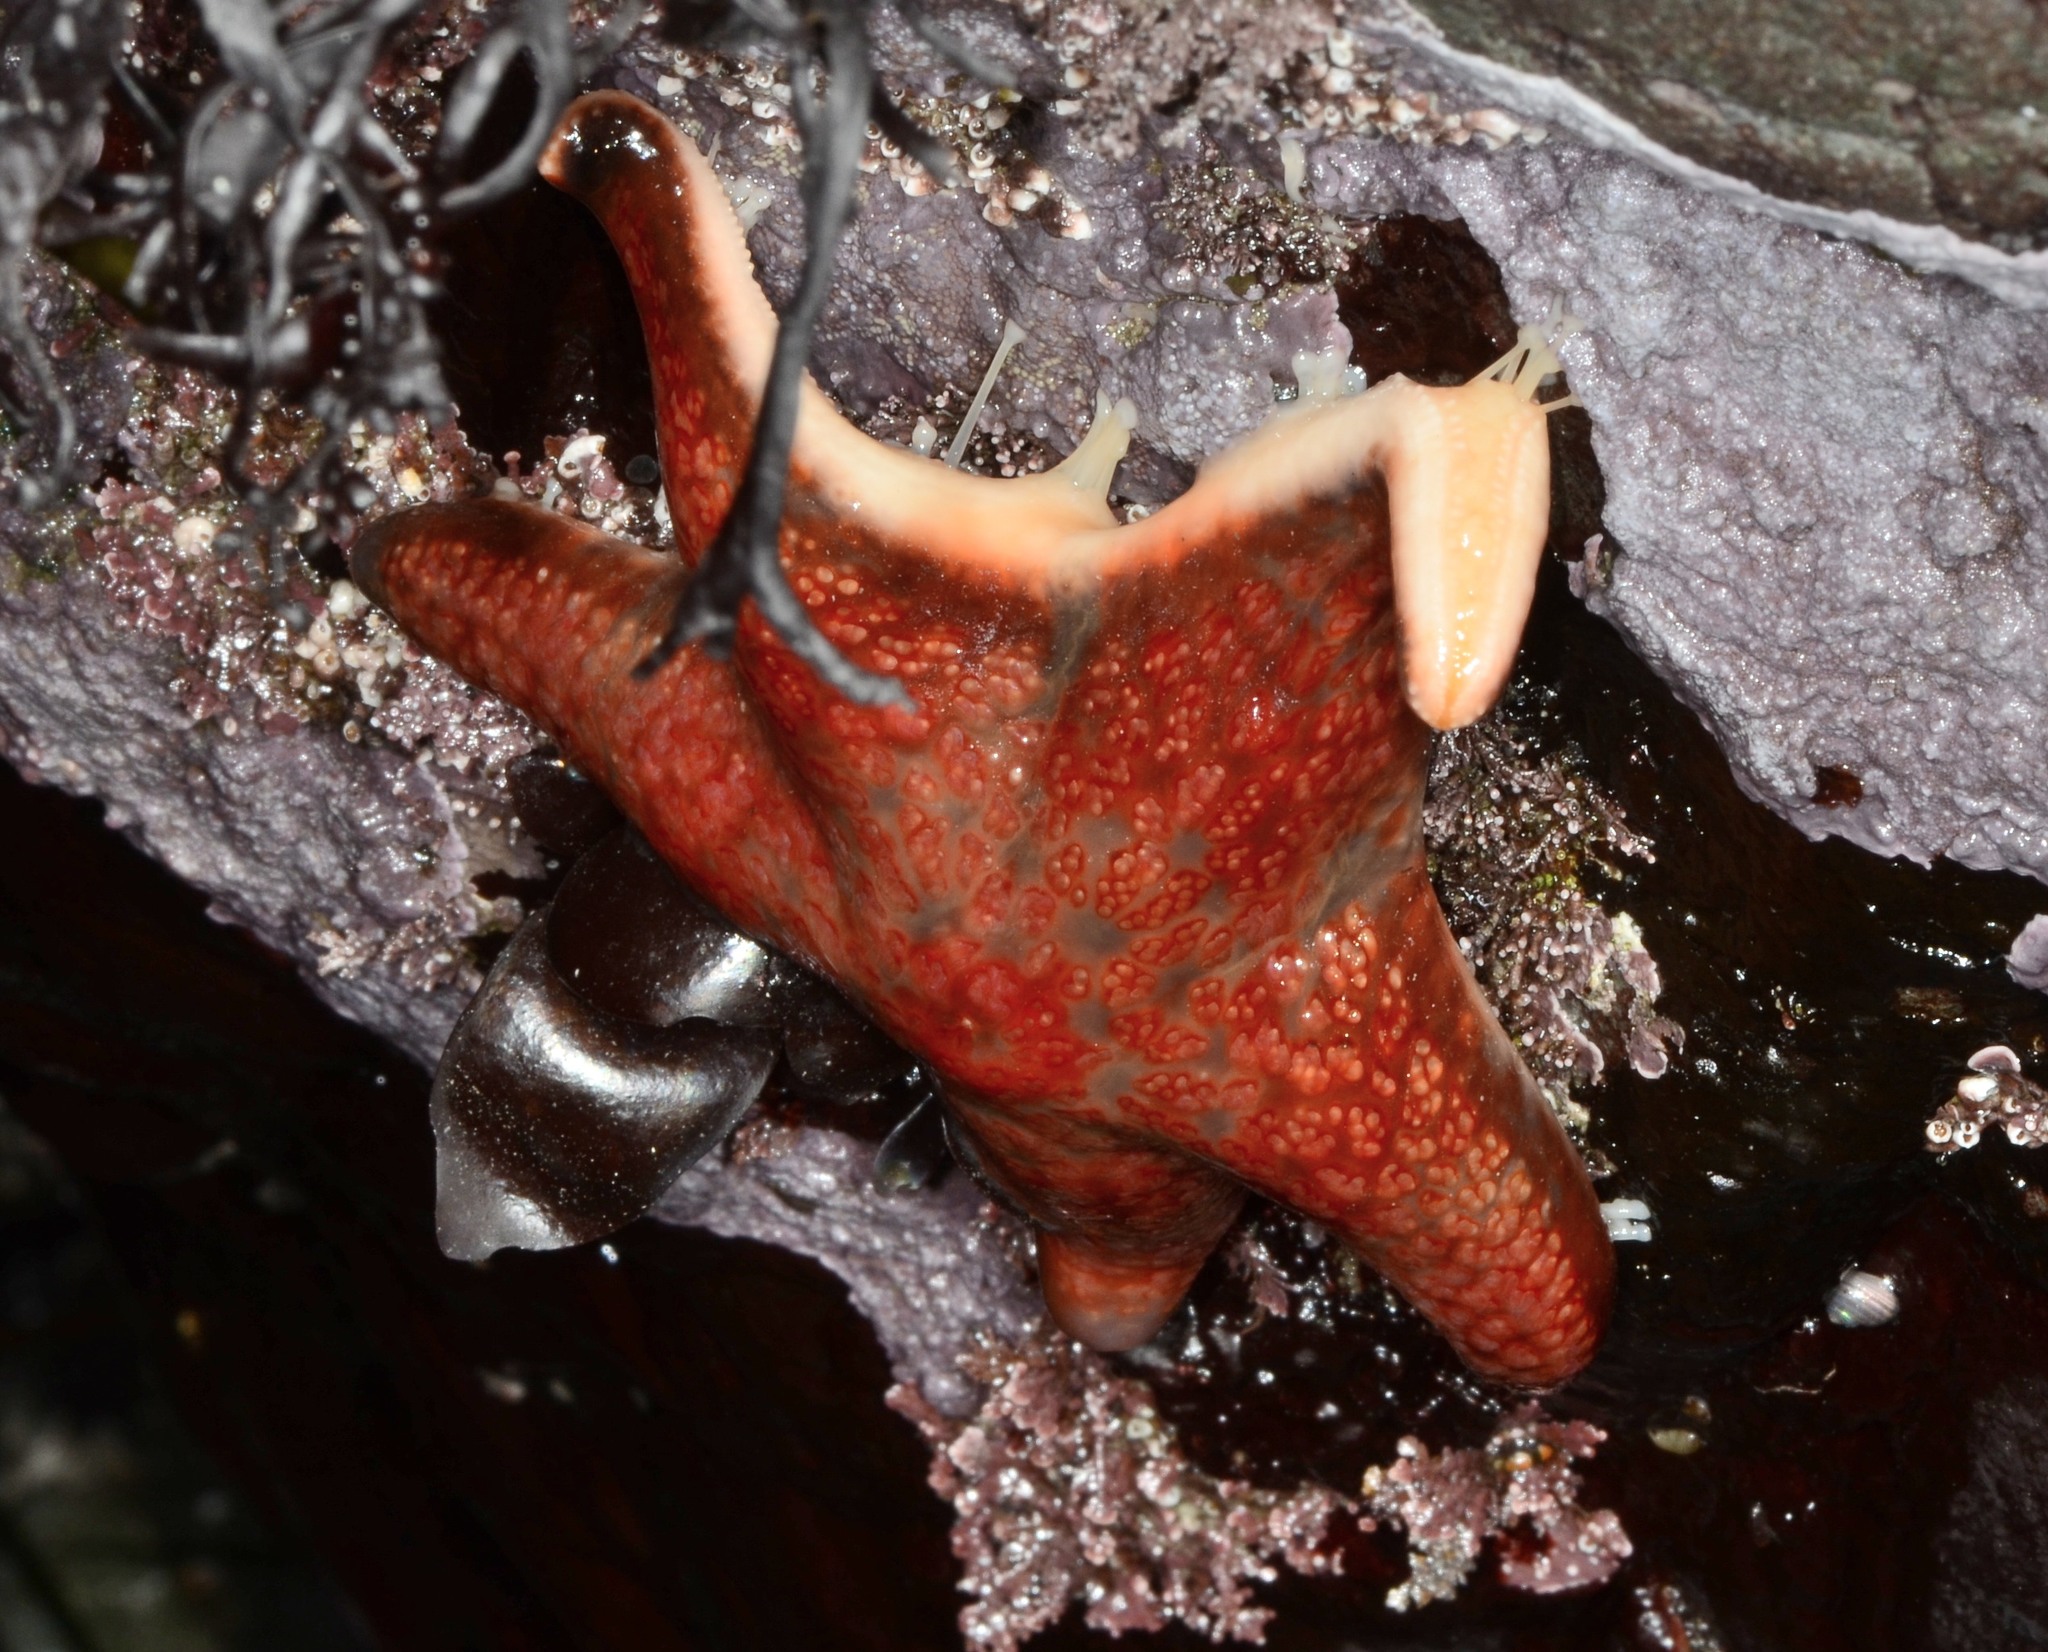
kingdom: Animalia
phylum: Echinodermata
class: Asteroidea
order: Valvatida
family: Asteropseidae
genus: Dermasterias
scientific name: Dermasterias imbricata
